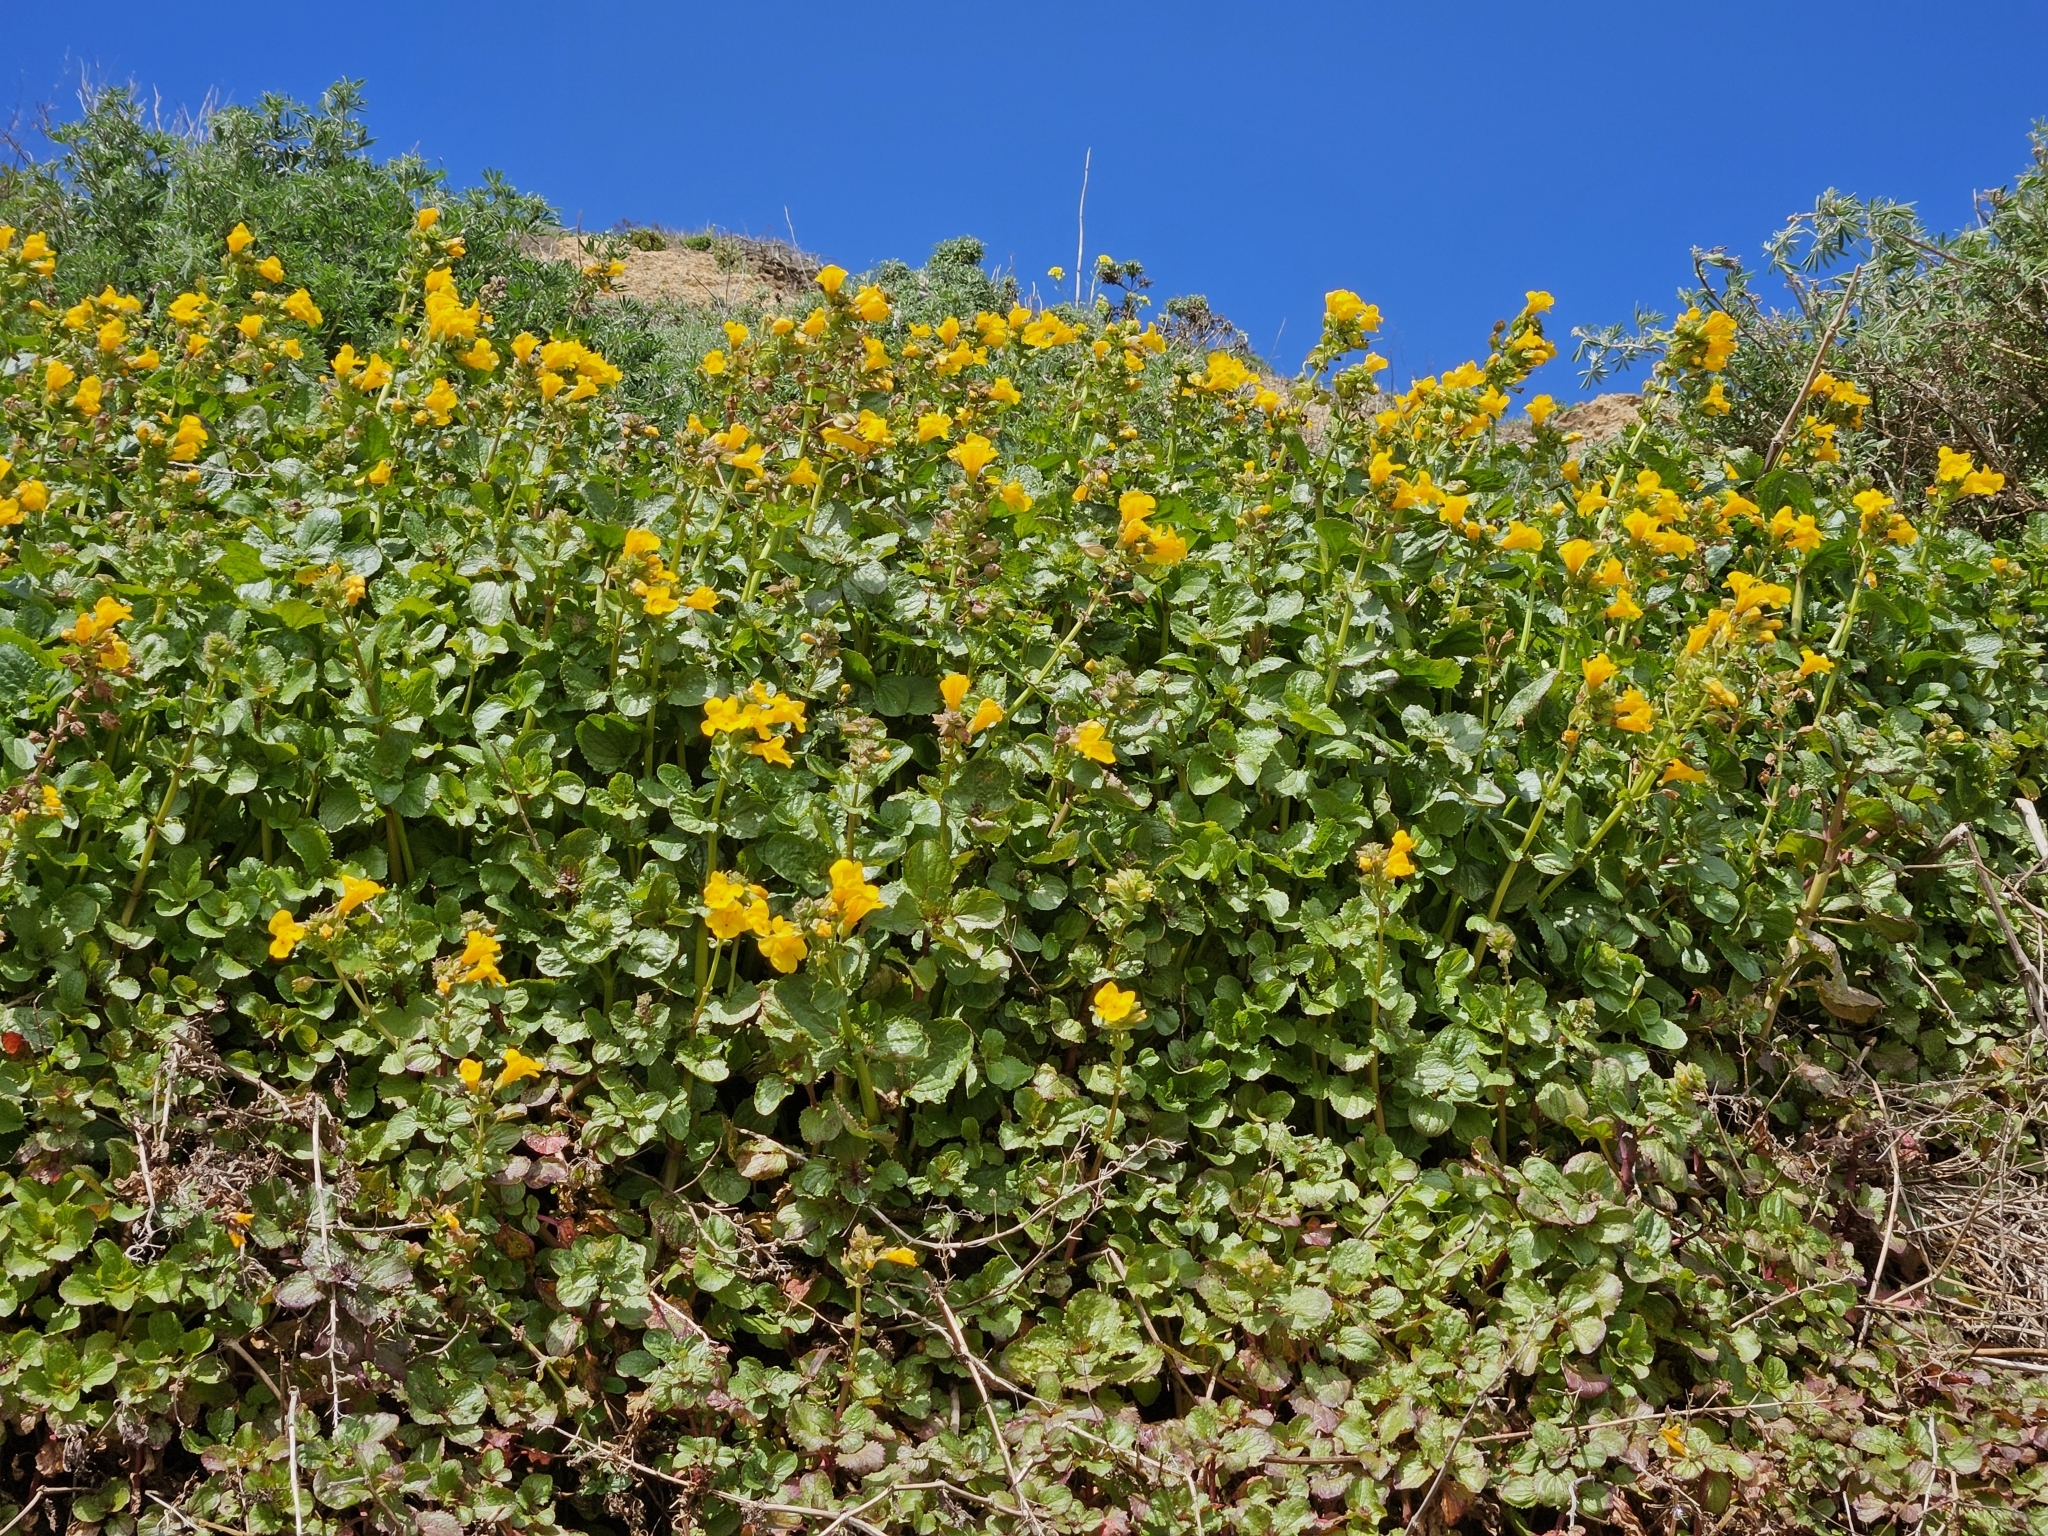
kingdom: Plantae
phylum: Tracheophyta
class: Magnoliopsida
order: Lamiales
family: Phrymaceae
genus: Erythranthe
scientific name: Erythranthe grandis
